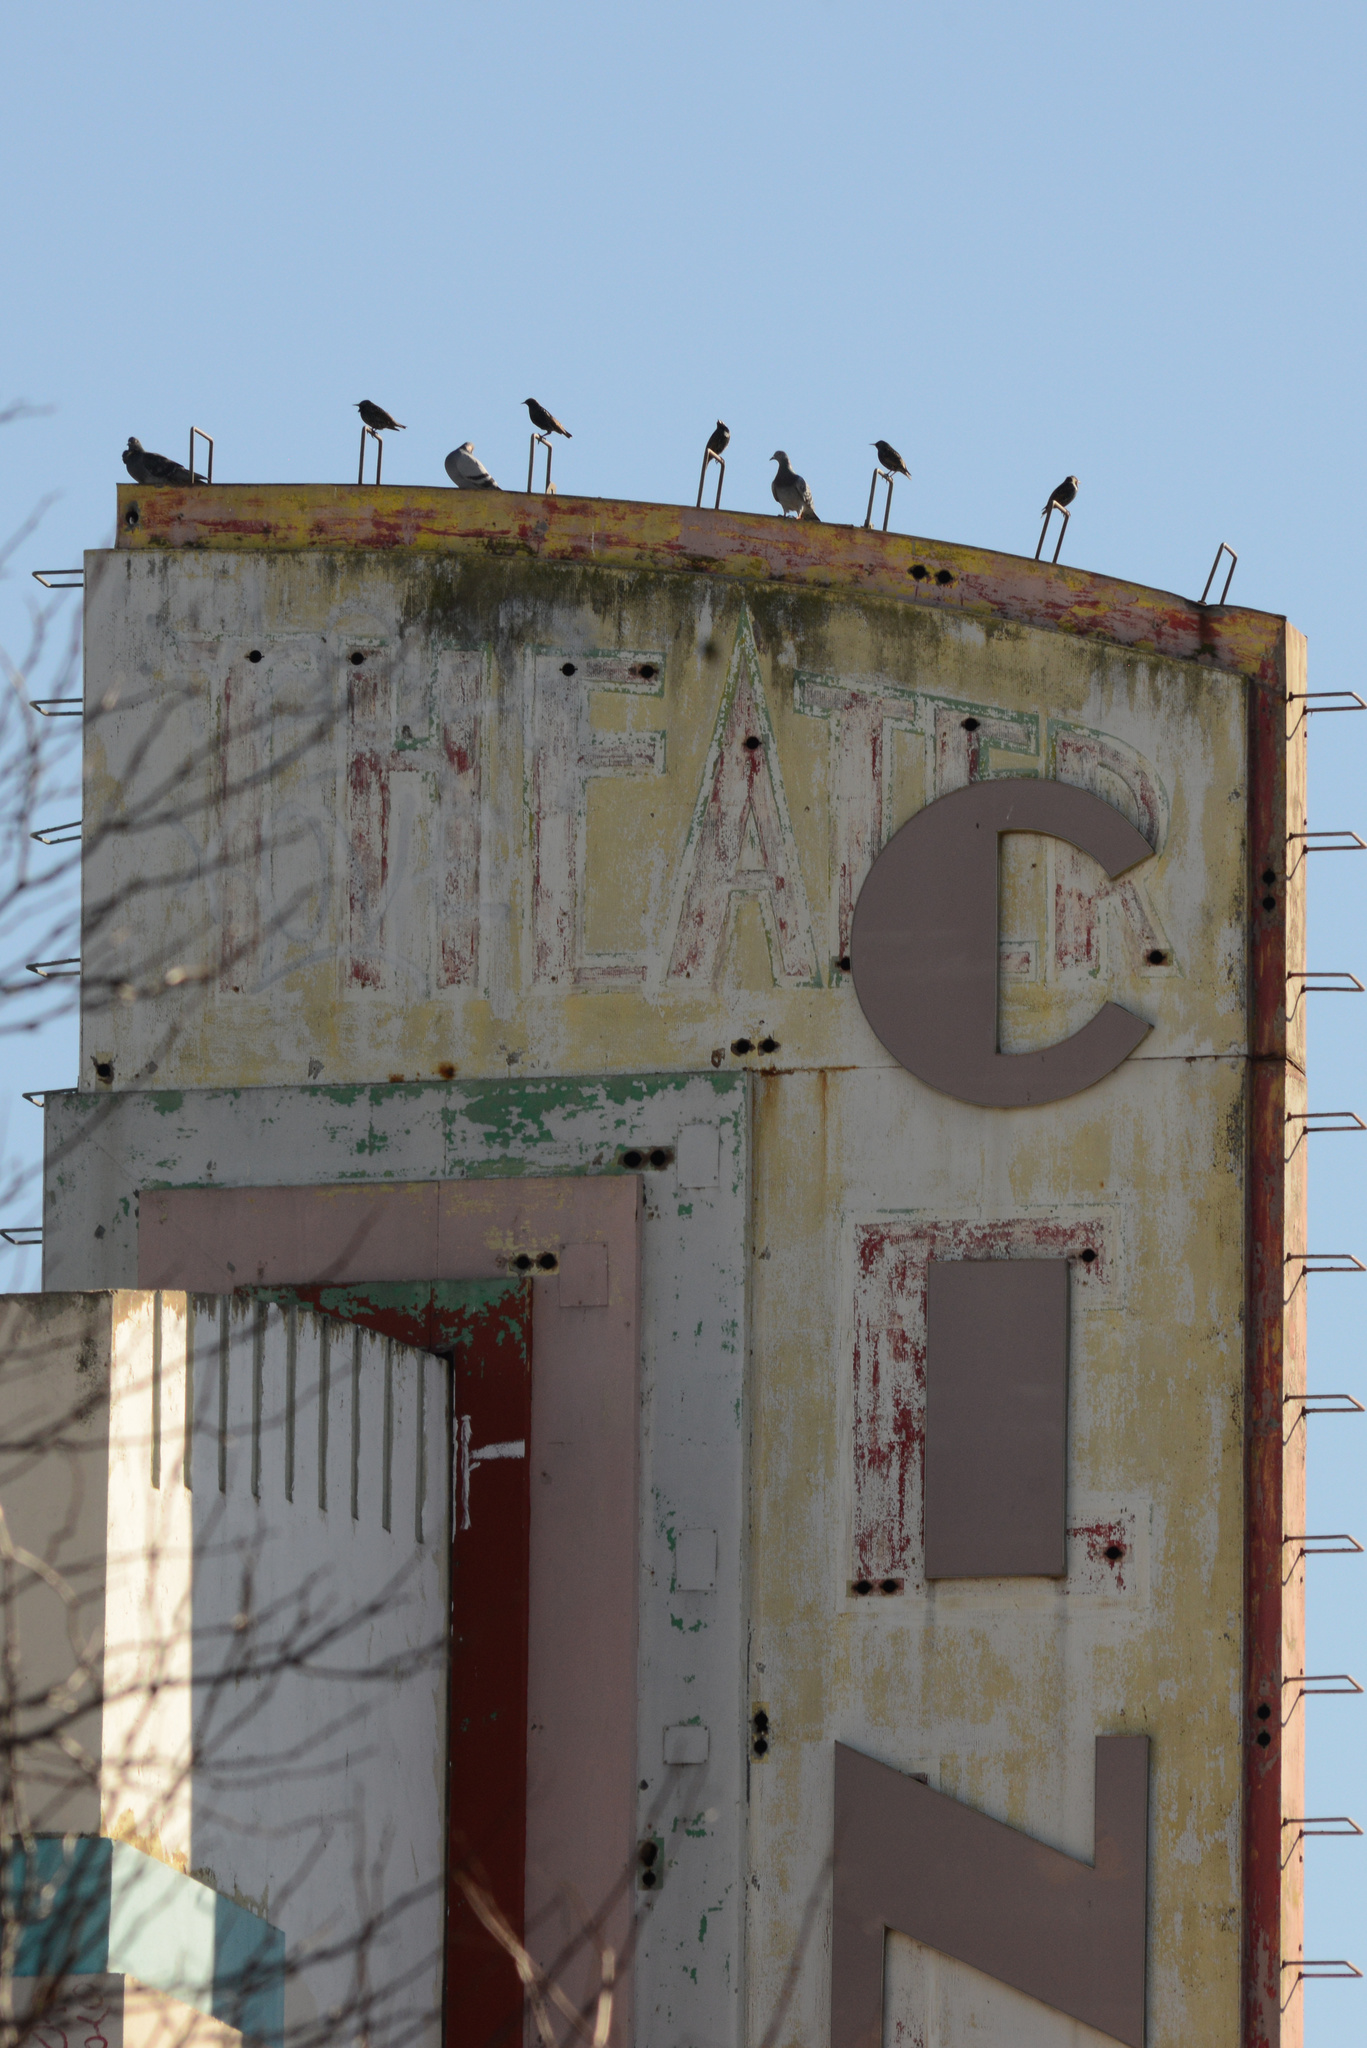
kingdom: Animalia
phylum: Chordata
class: Aves
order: Passeriformes
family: Sturnidae
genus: Sturnus
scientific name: Sturnus vulgaris
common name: Common starling
